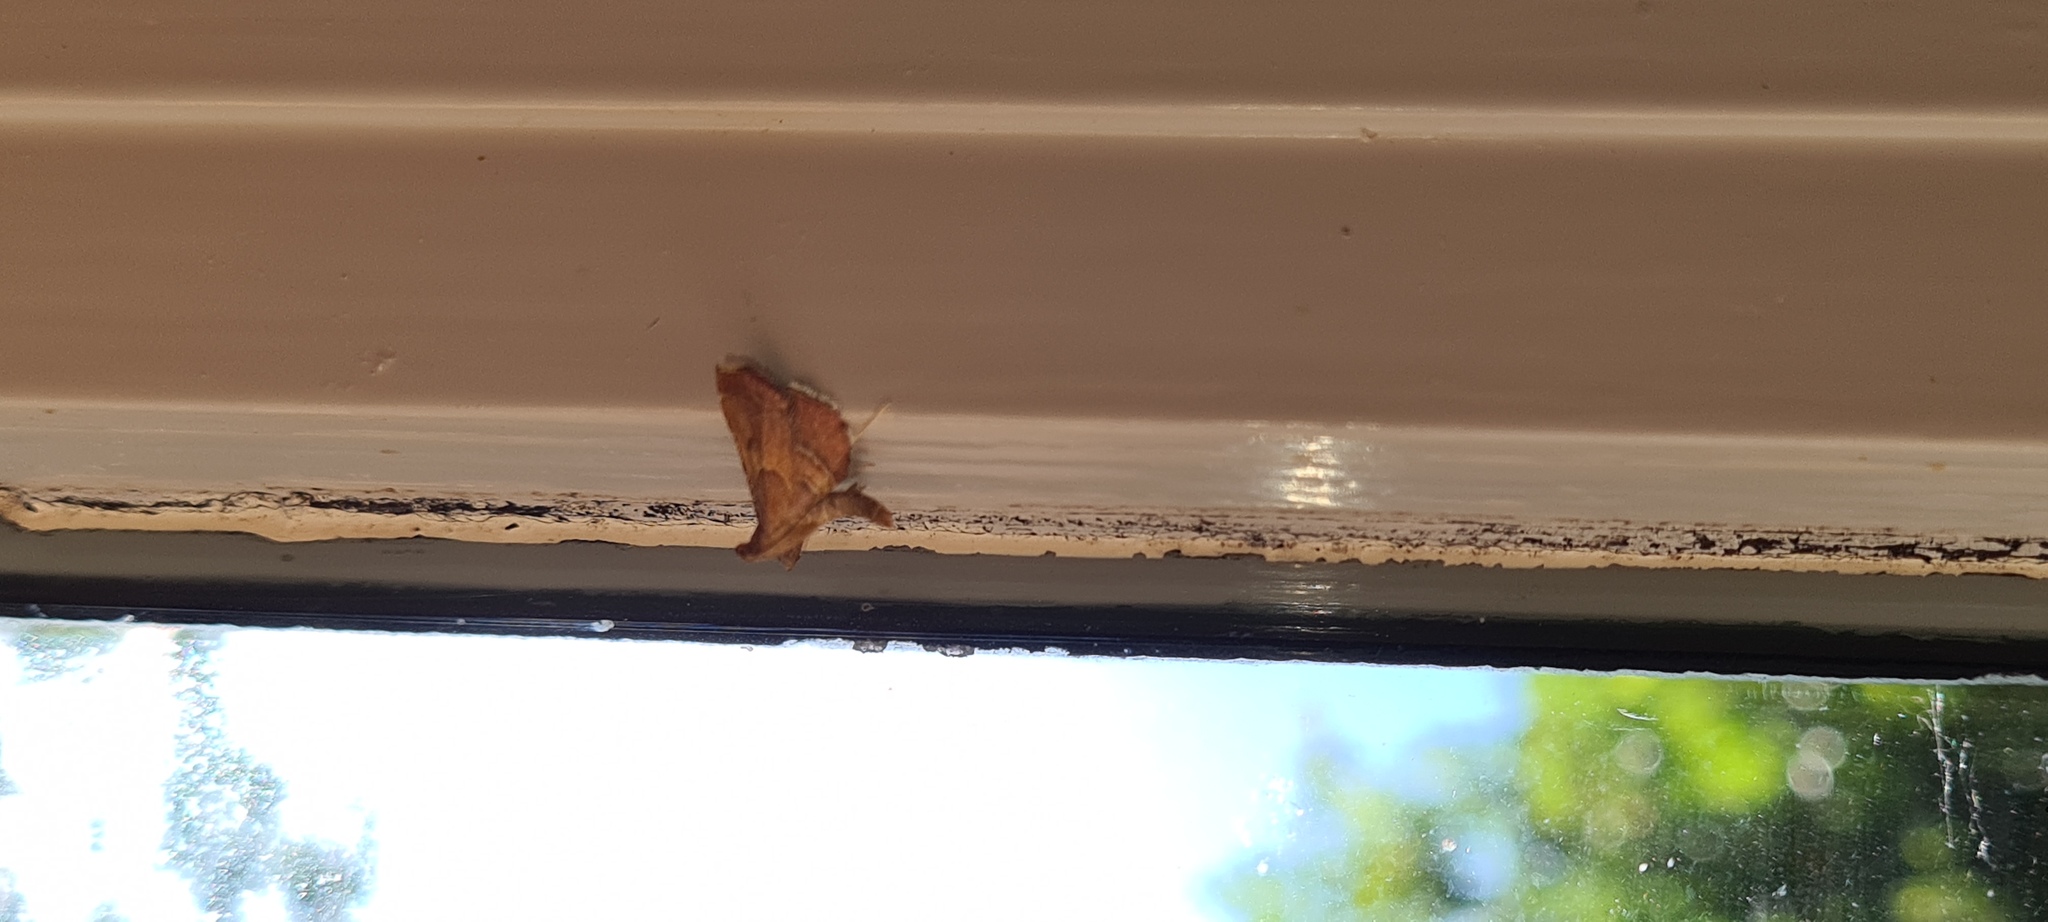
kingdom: Animalia
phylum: Arthropoda
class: Insecta
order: Lepidoptera
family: Pyralidae
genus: Endotricha
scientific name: Endotricha flammealis
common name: Rosy tabby
